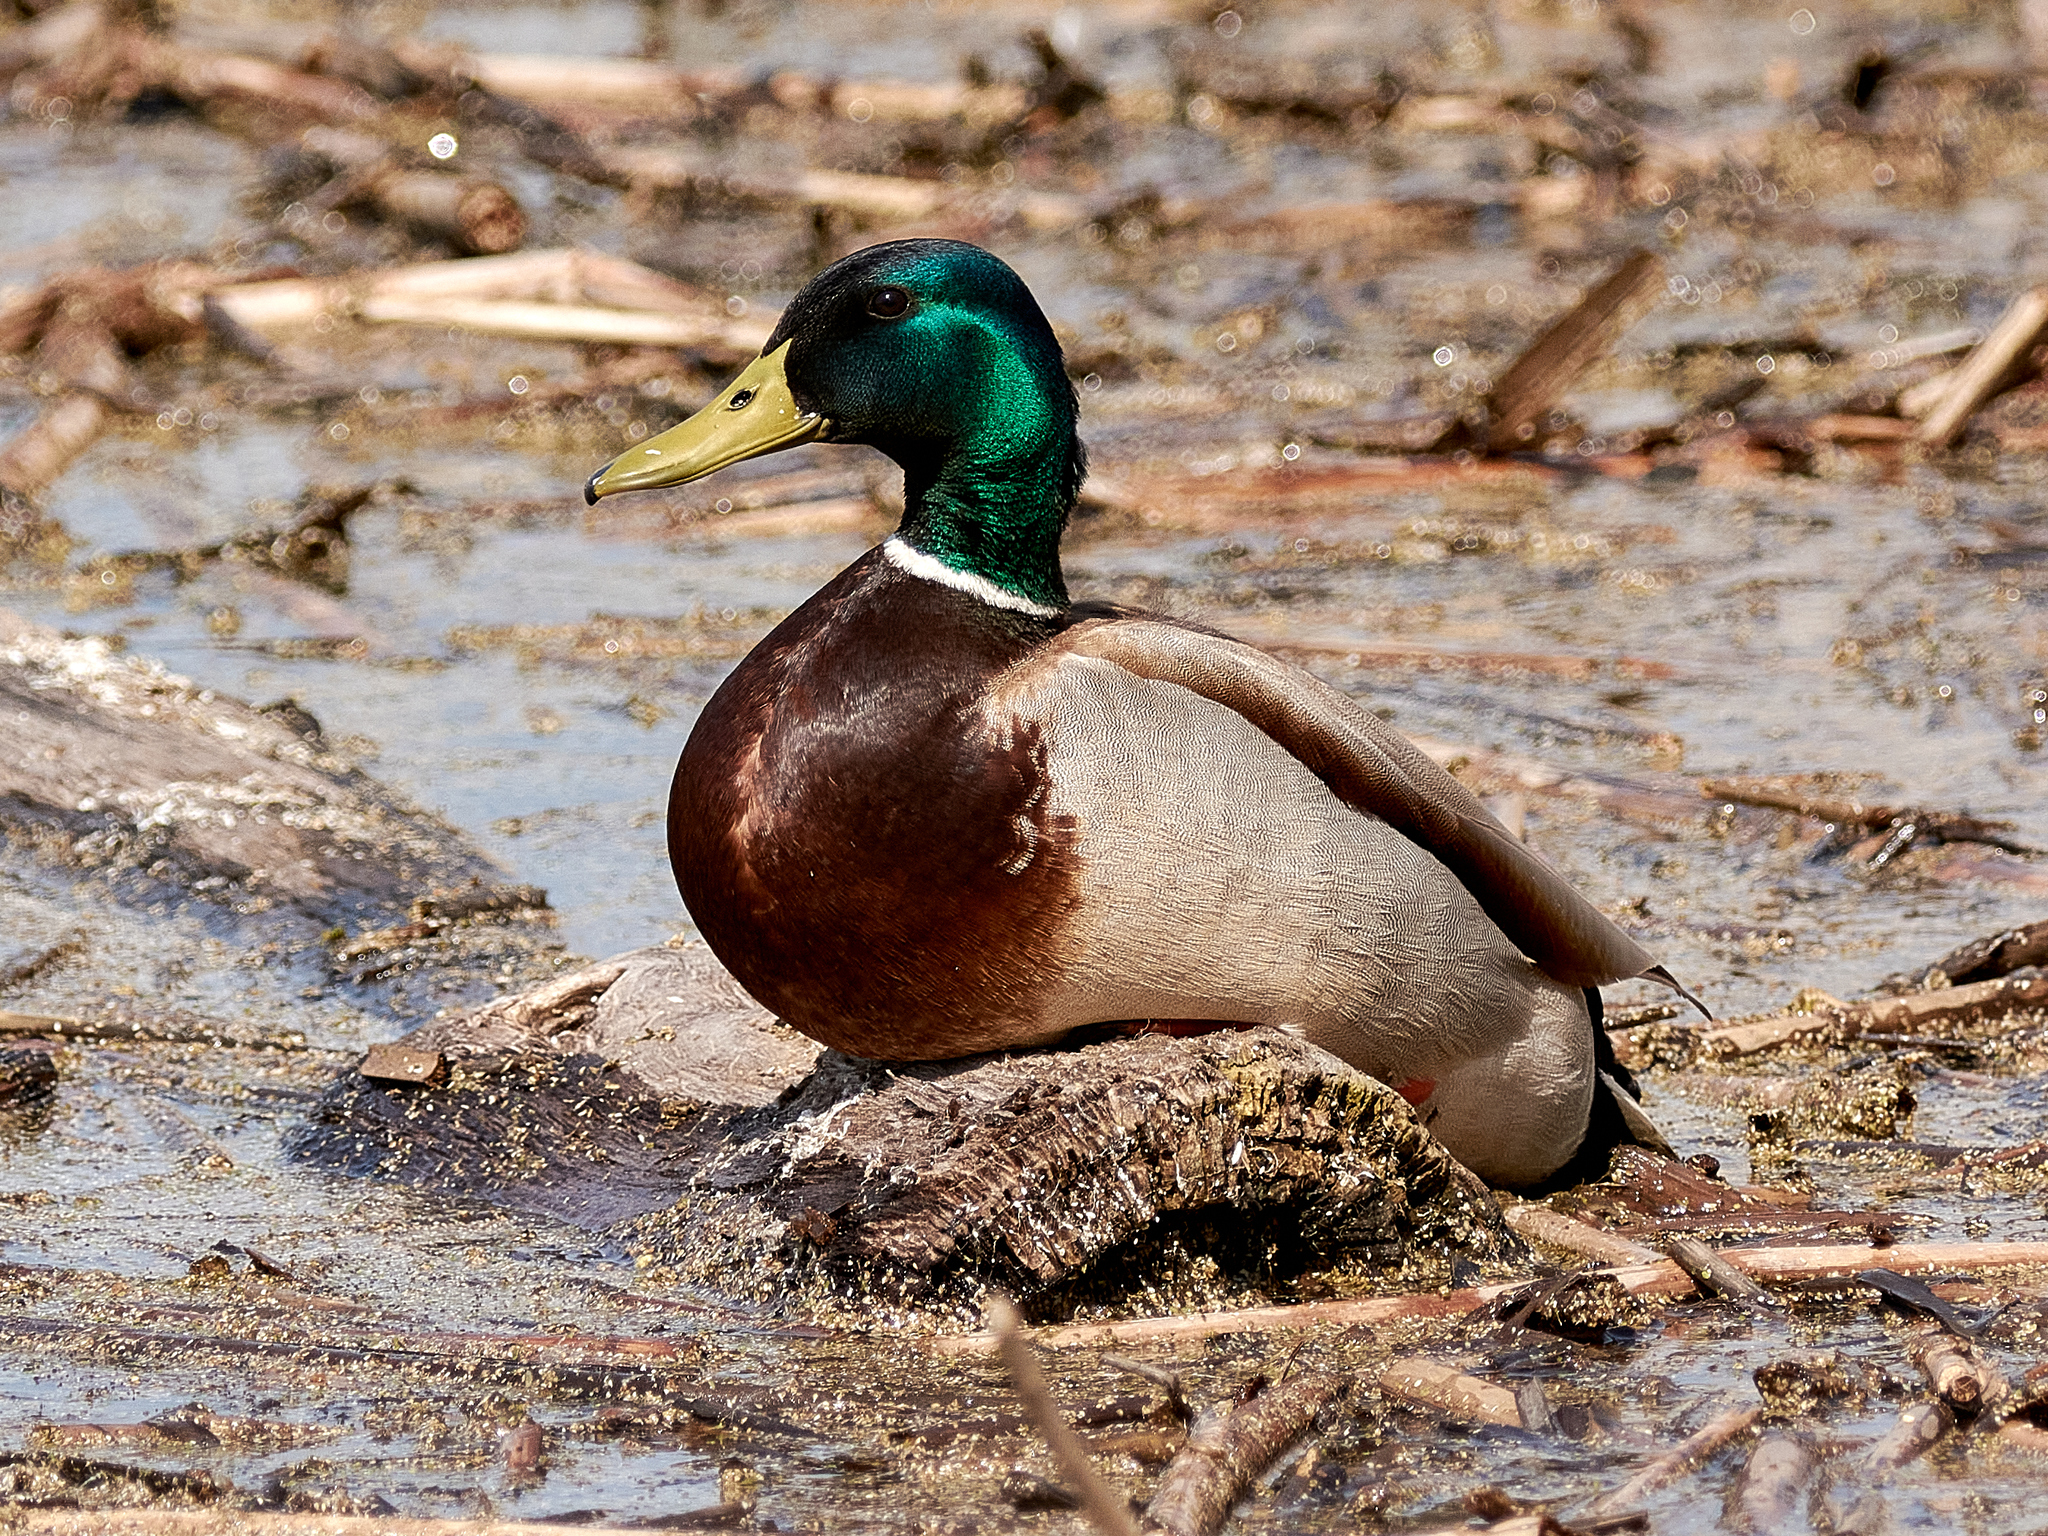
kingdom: Animalia
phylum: Chordata
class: Aves
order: Anseriformes
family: Anatidae
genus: Anas
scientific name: Anas platyrhynchos
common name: Mallard
